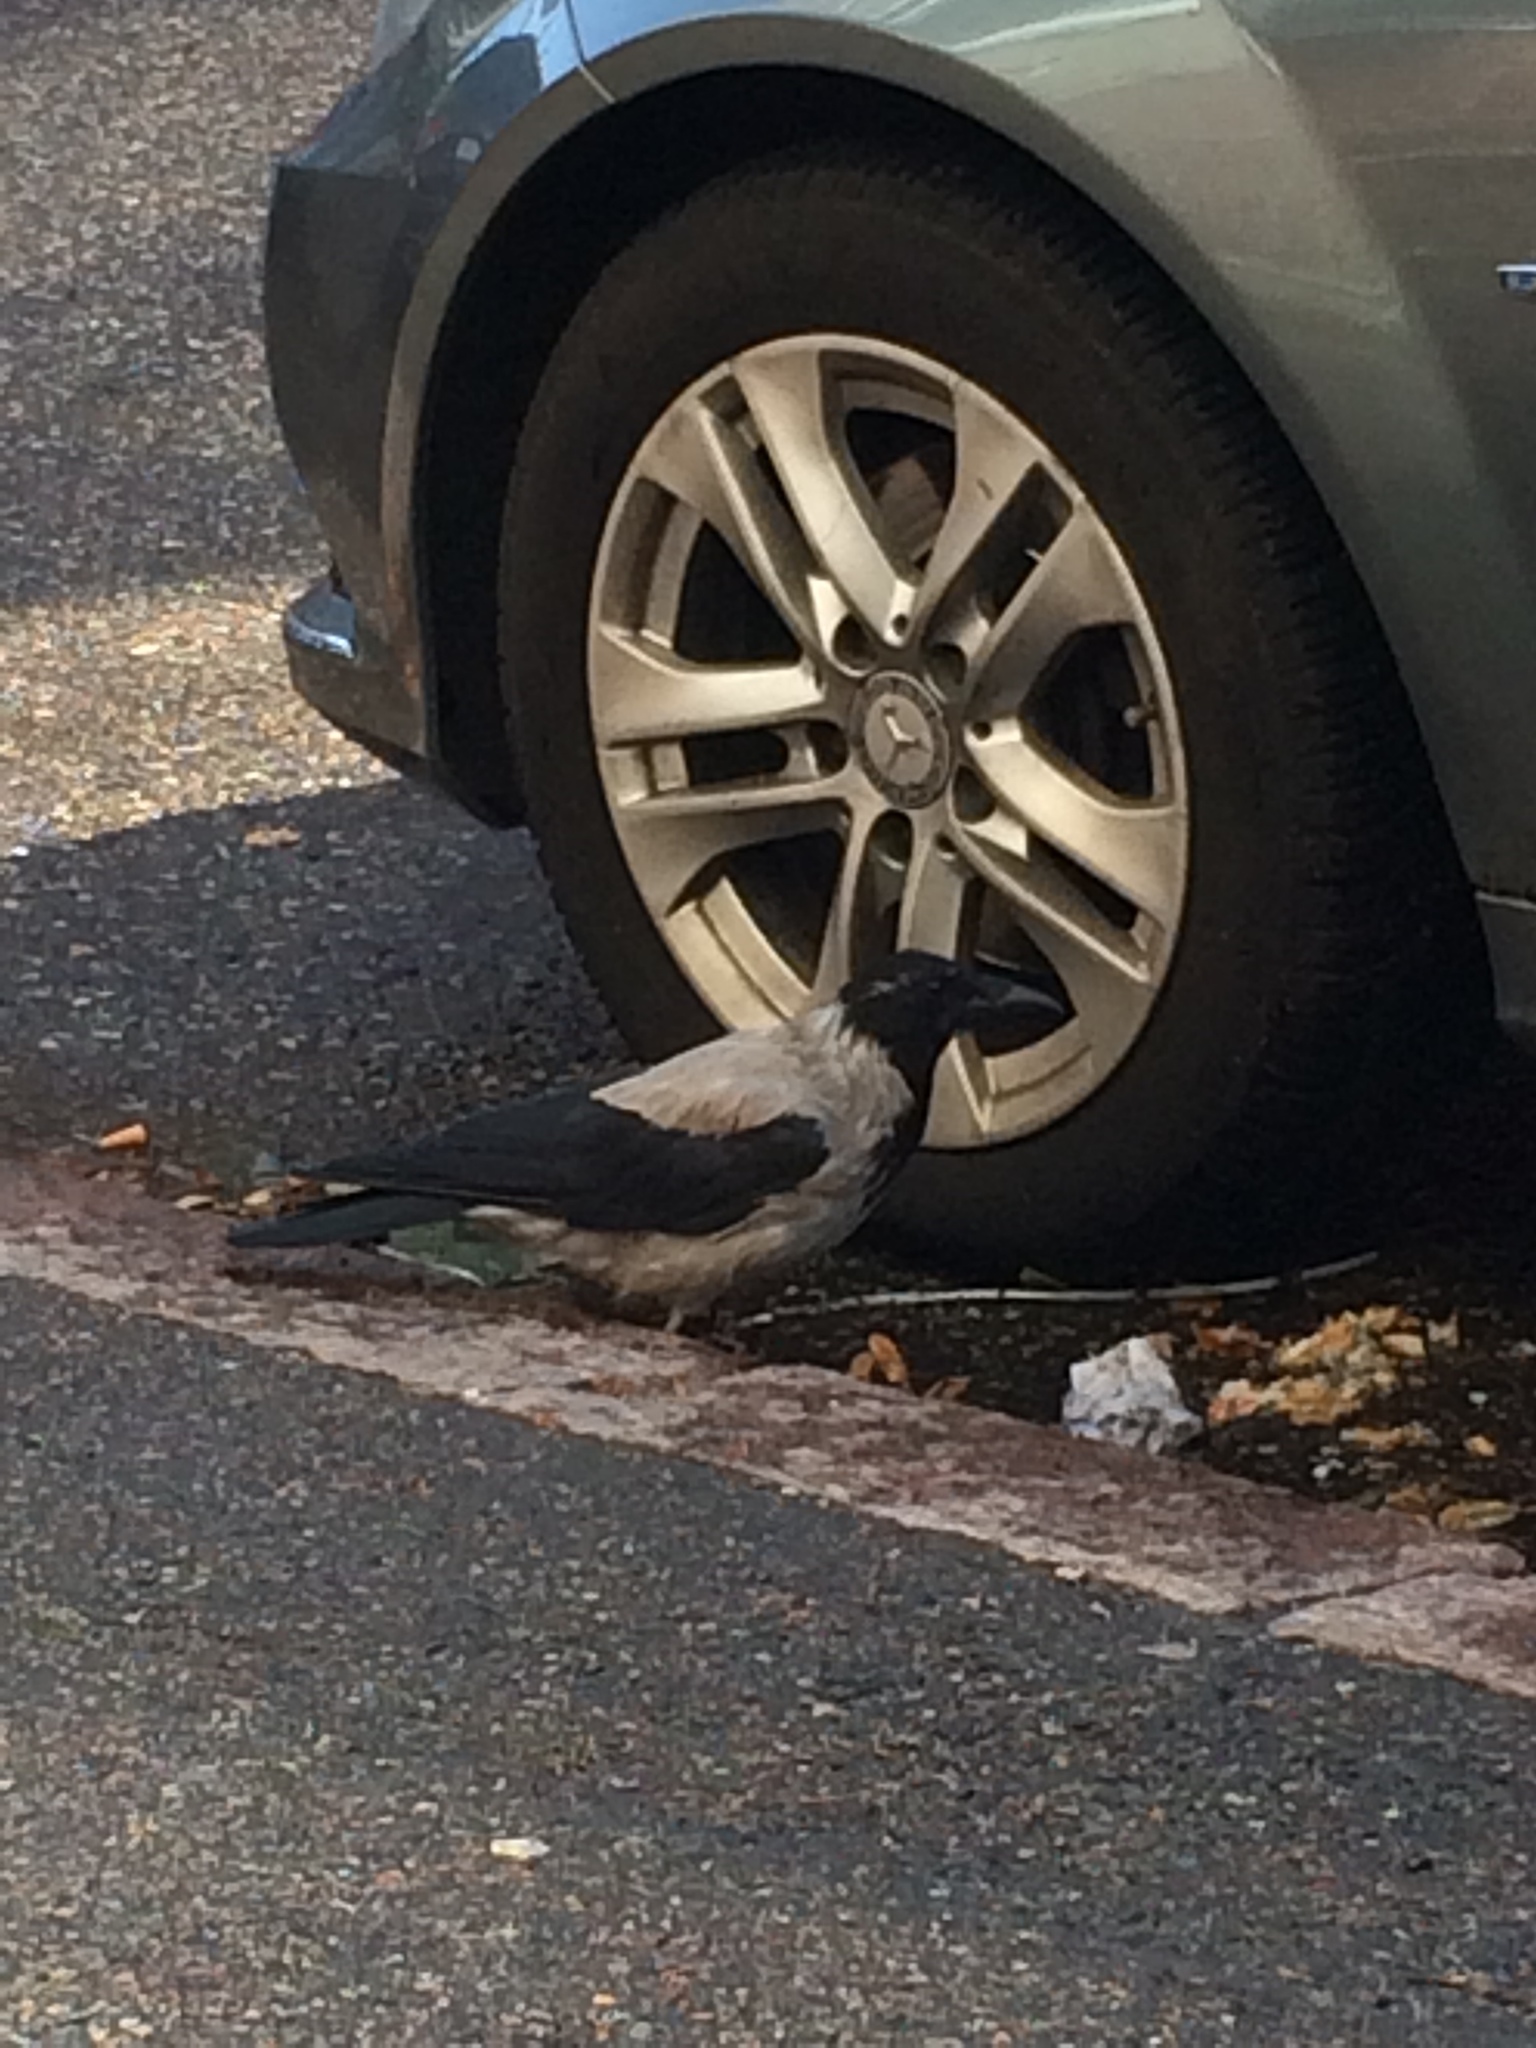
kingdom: Animalia
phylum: Chordata
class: Aves
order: Passeriformes
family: Corvidae
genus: Corvus
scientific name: Corvus cornix
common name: Hooded crow
